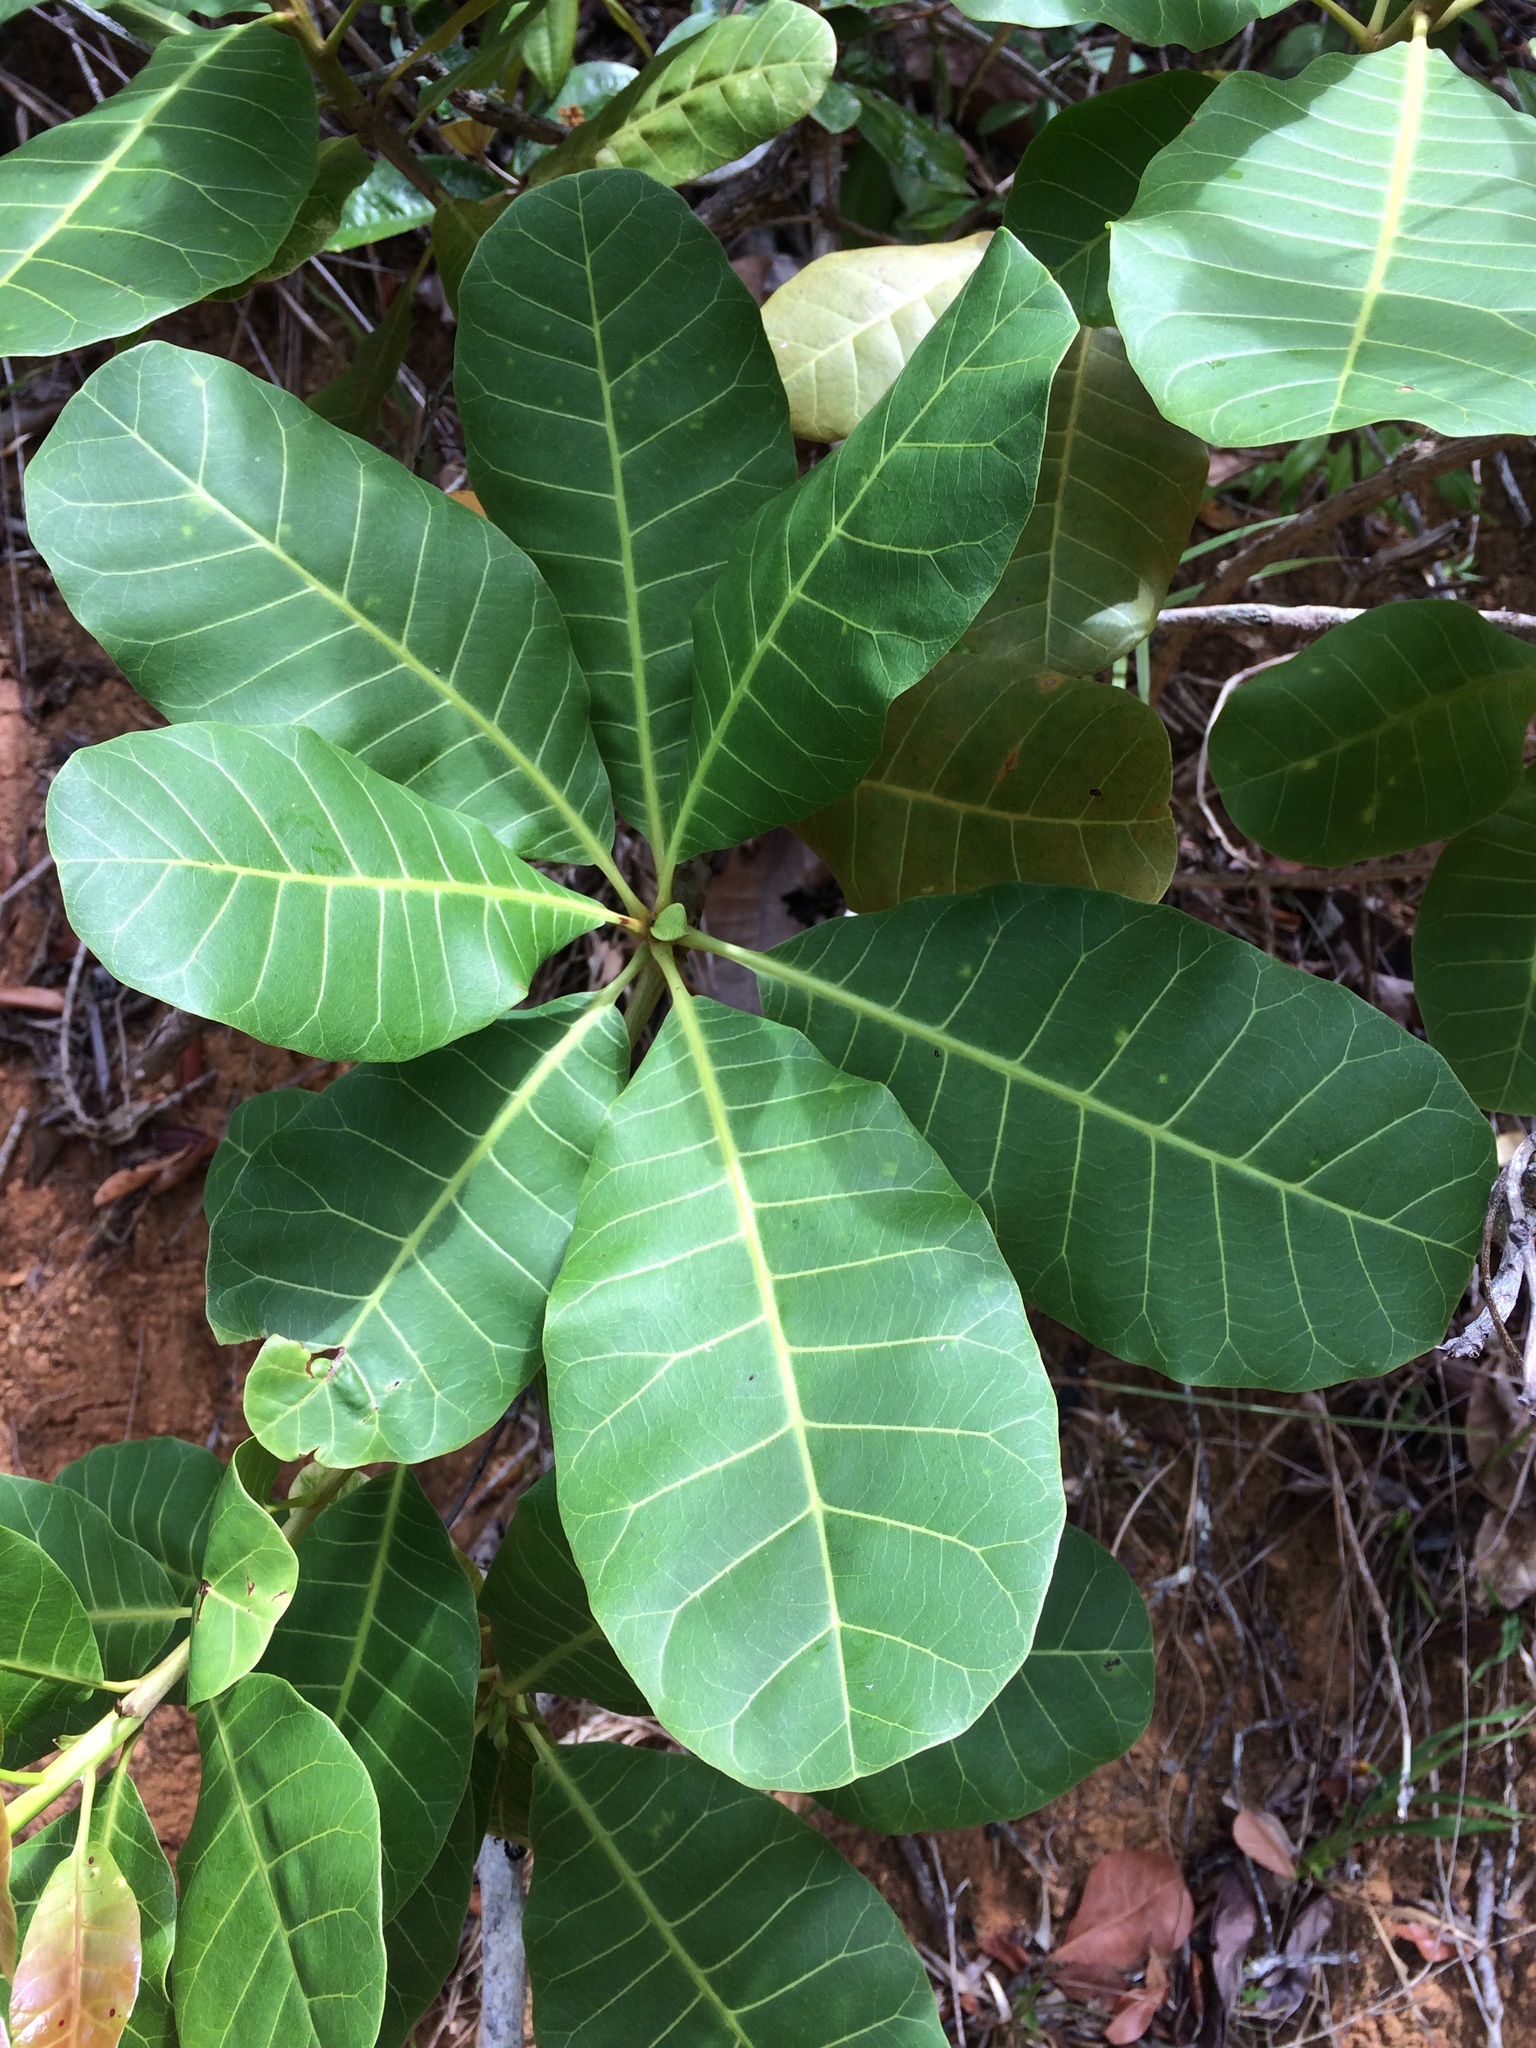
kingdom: Plantae
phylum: Tracheophyta
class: Magnoliopsida
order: Sapindales
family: Anacardiaceae
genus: Anacardium
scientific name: Anacardium occidentale
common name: Cashew
